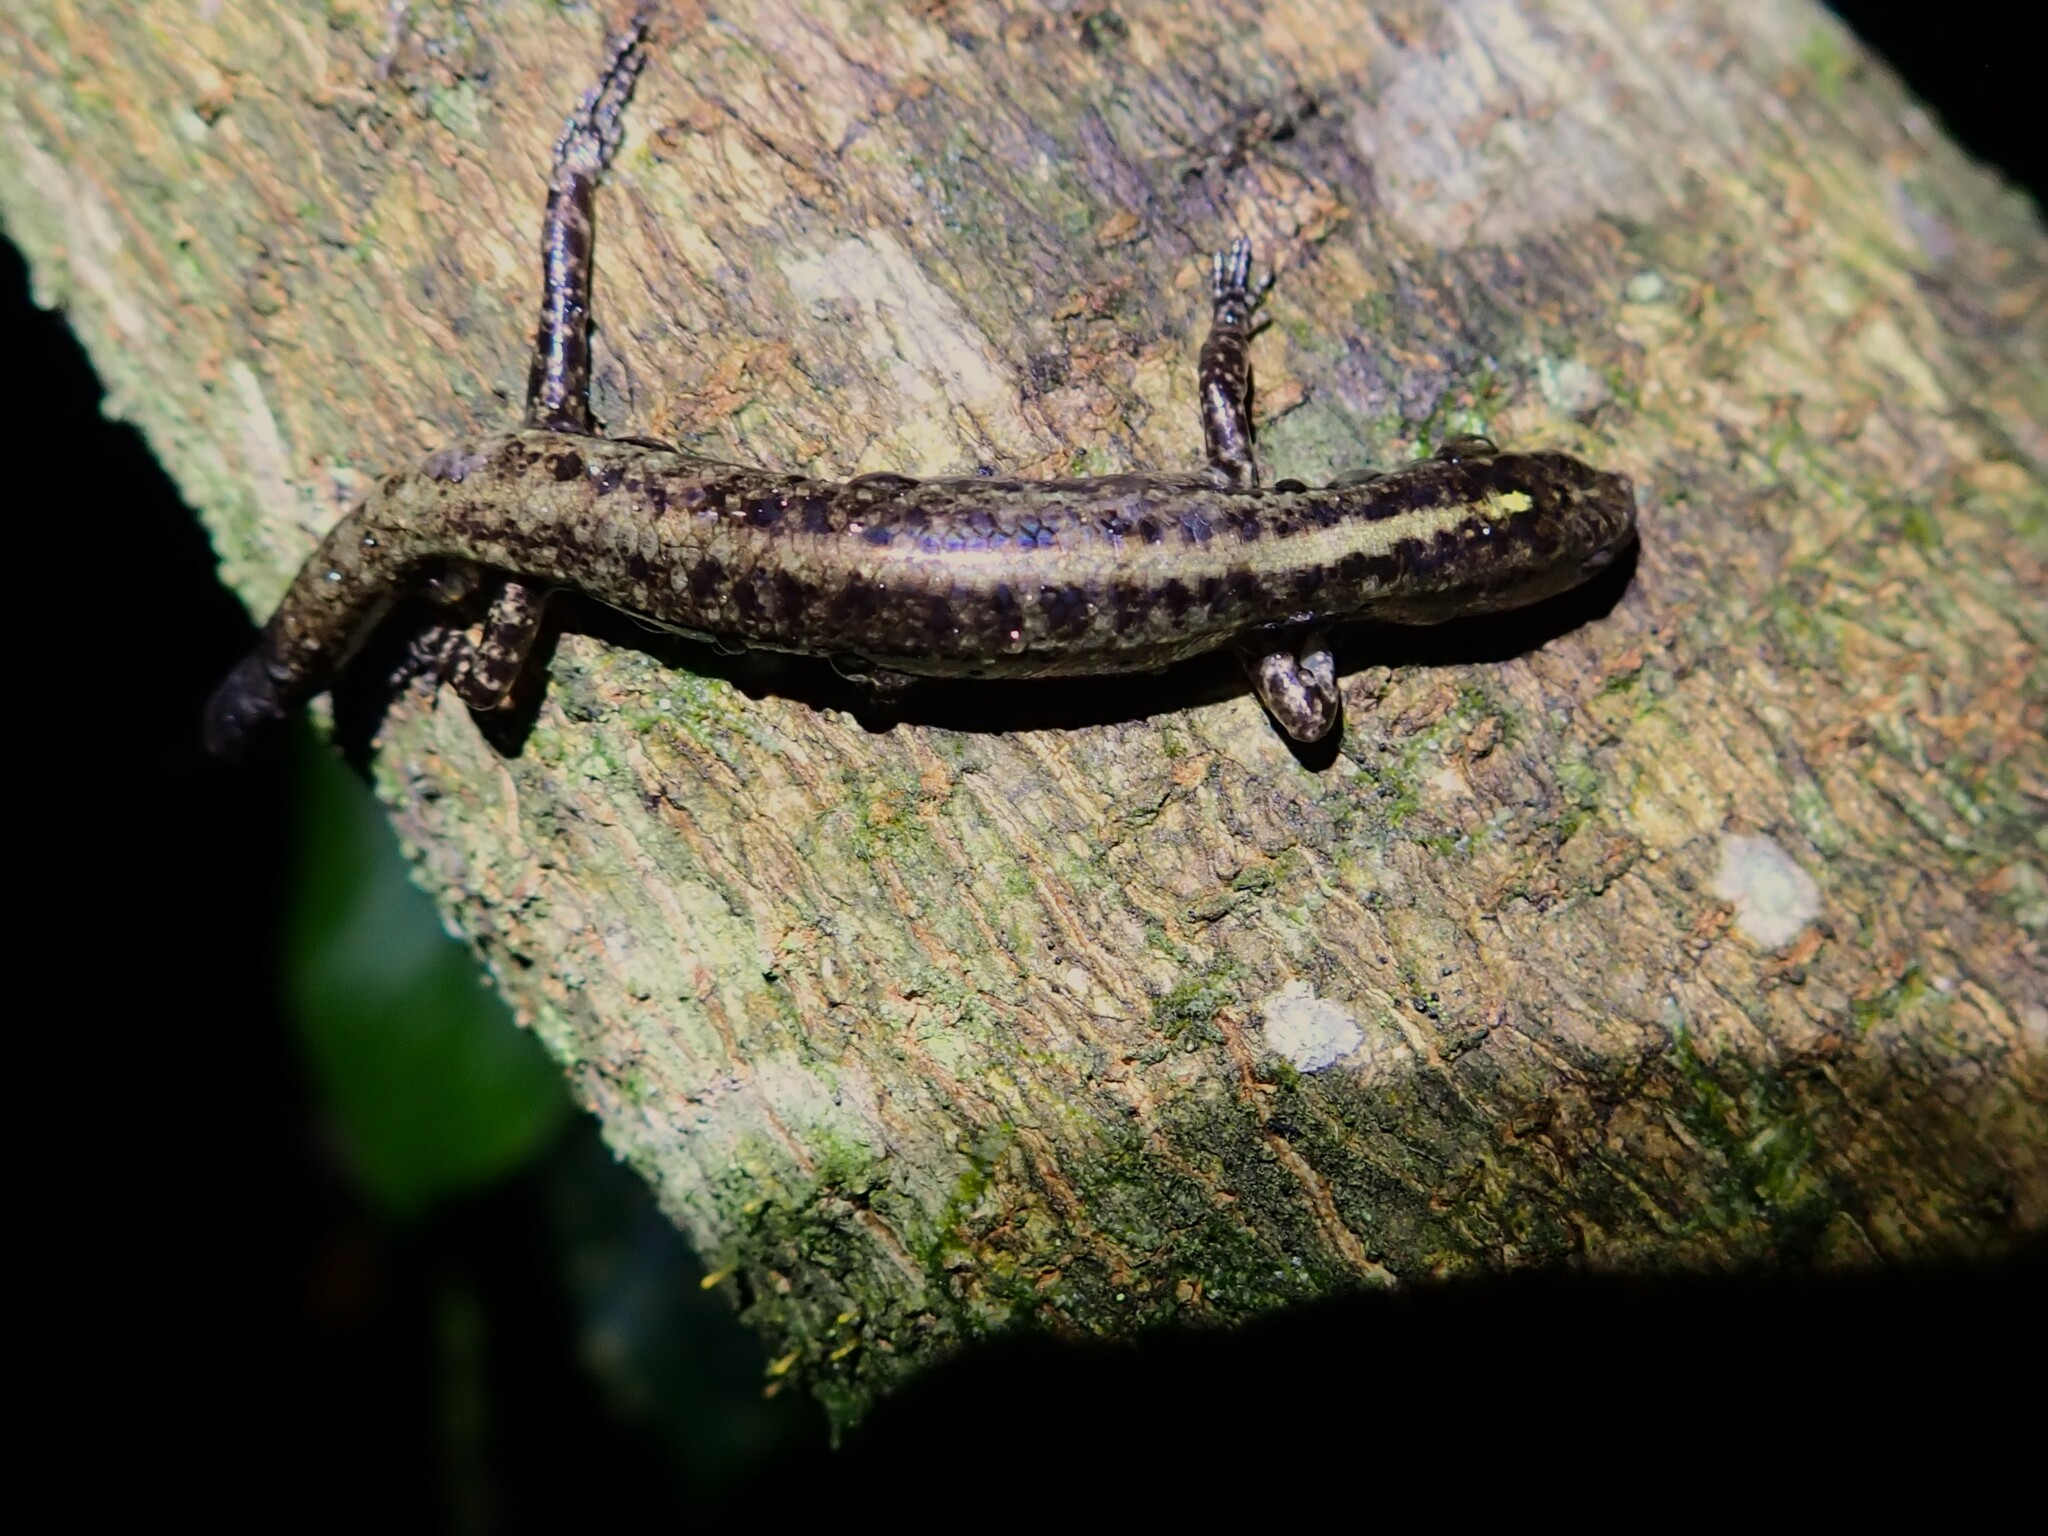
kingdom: Animalia
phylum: Chordata
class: Squamata
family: Scincidae
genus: Ornithuroscincus
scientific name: Ornithuroscincus noctua
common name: Moth skink
